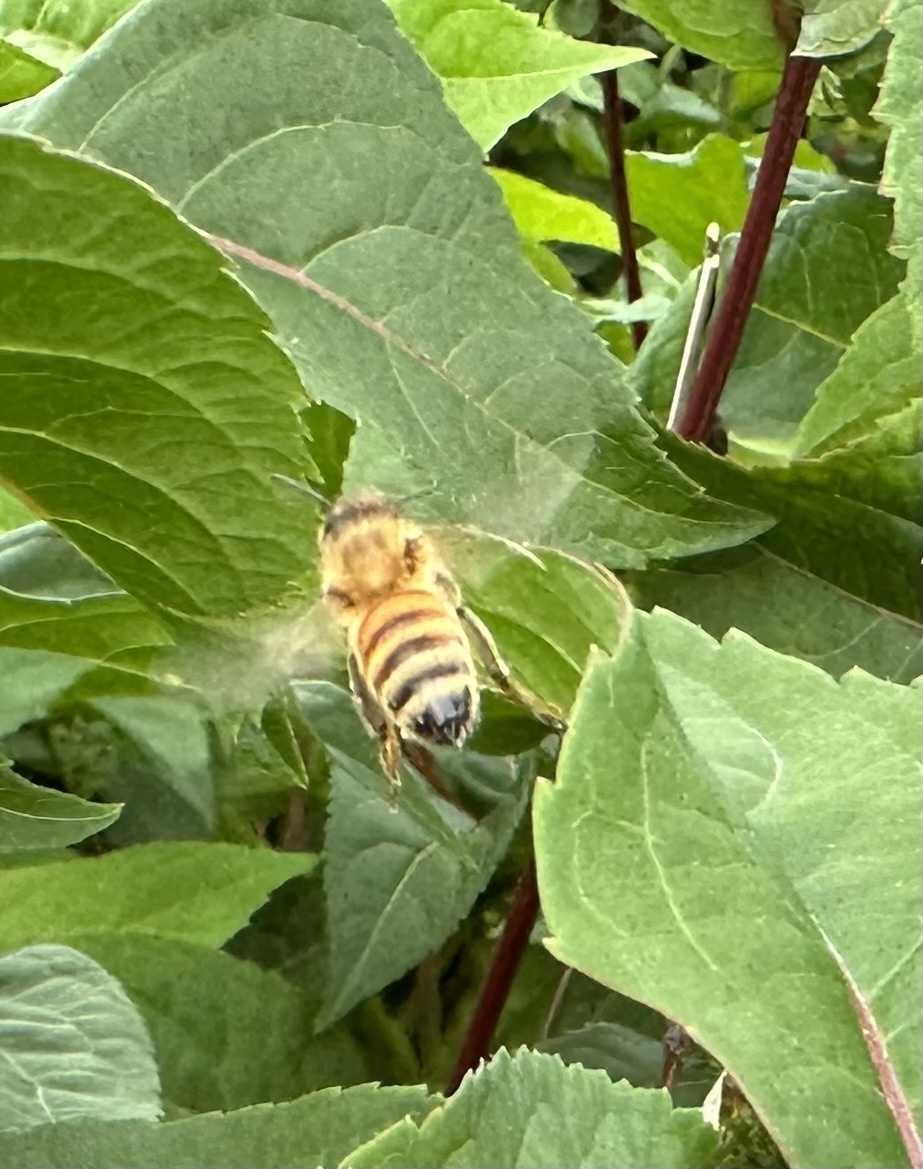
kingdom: Animalia
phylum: Arthropoda
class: Insecta
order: Hymenoptera
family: Apidae
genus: Apis
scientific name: Apis mellifera
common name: Honey bee
